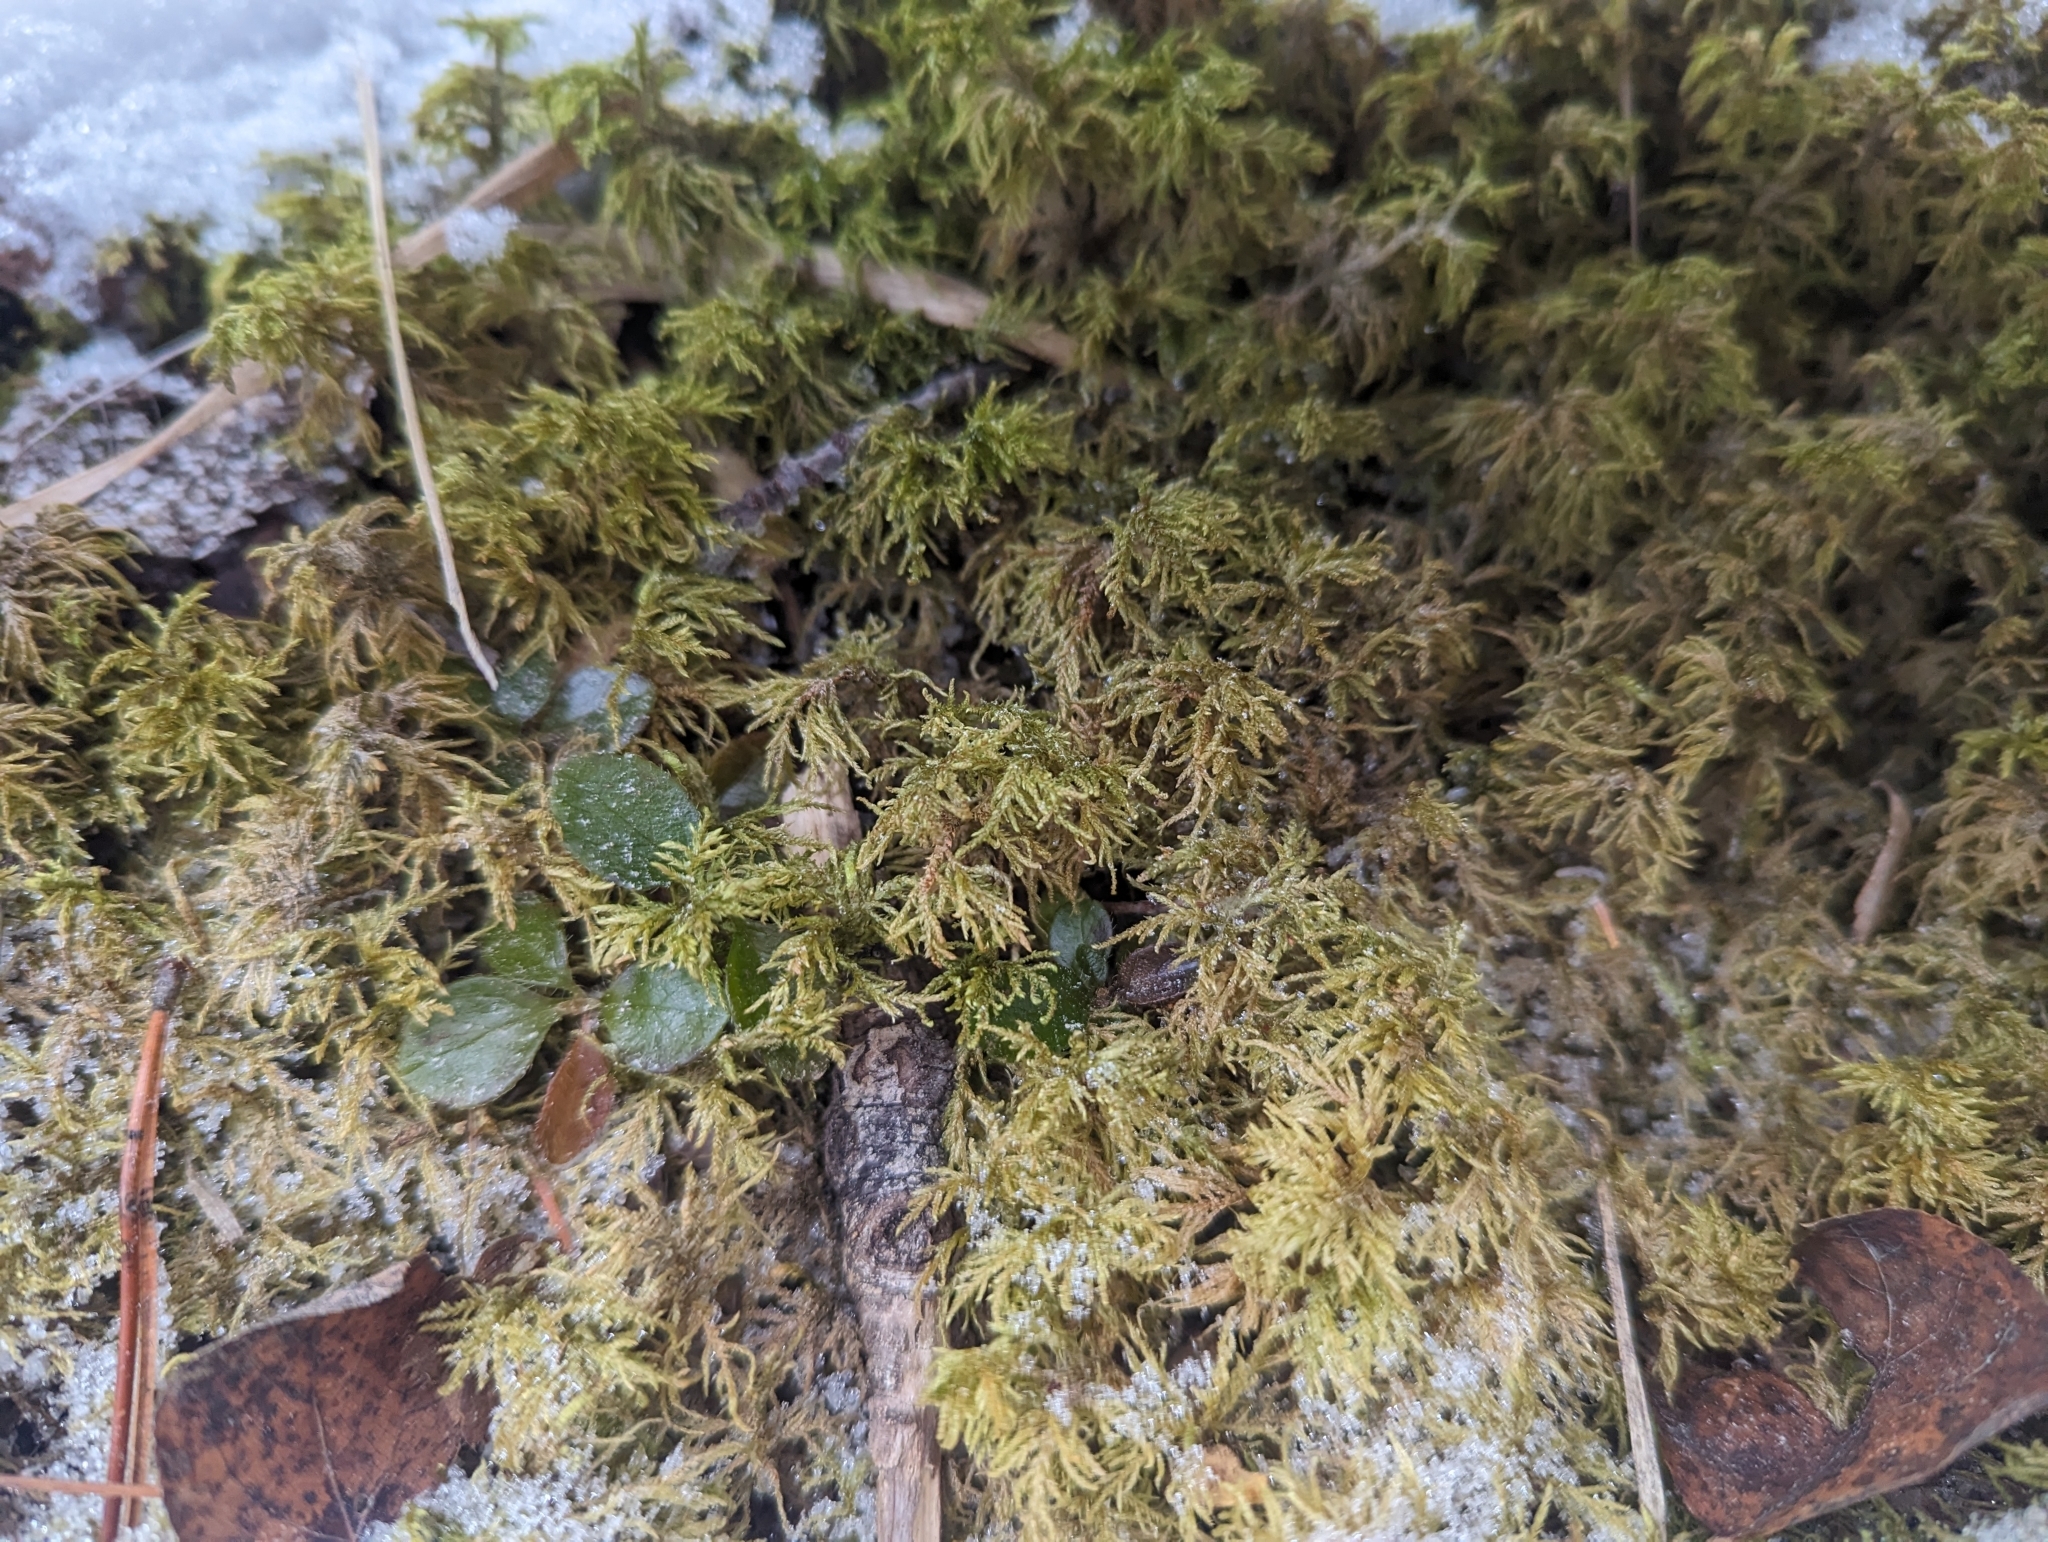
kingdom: Plantae
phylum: Bryophyta
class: Bryopsida
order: Hypnales
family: Hylocomiaceae
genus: Hylocomium
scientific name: Hylocomium splendens
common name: Stairstep moss
